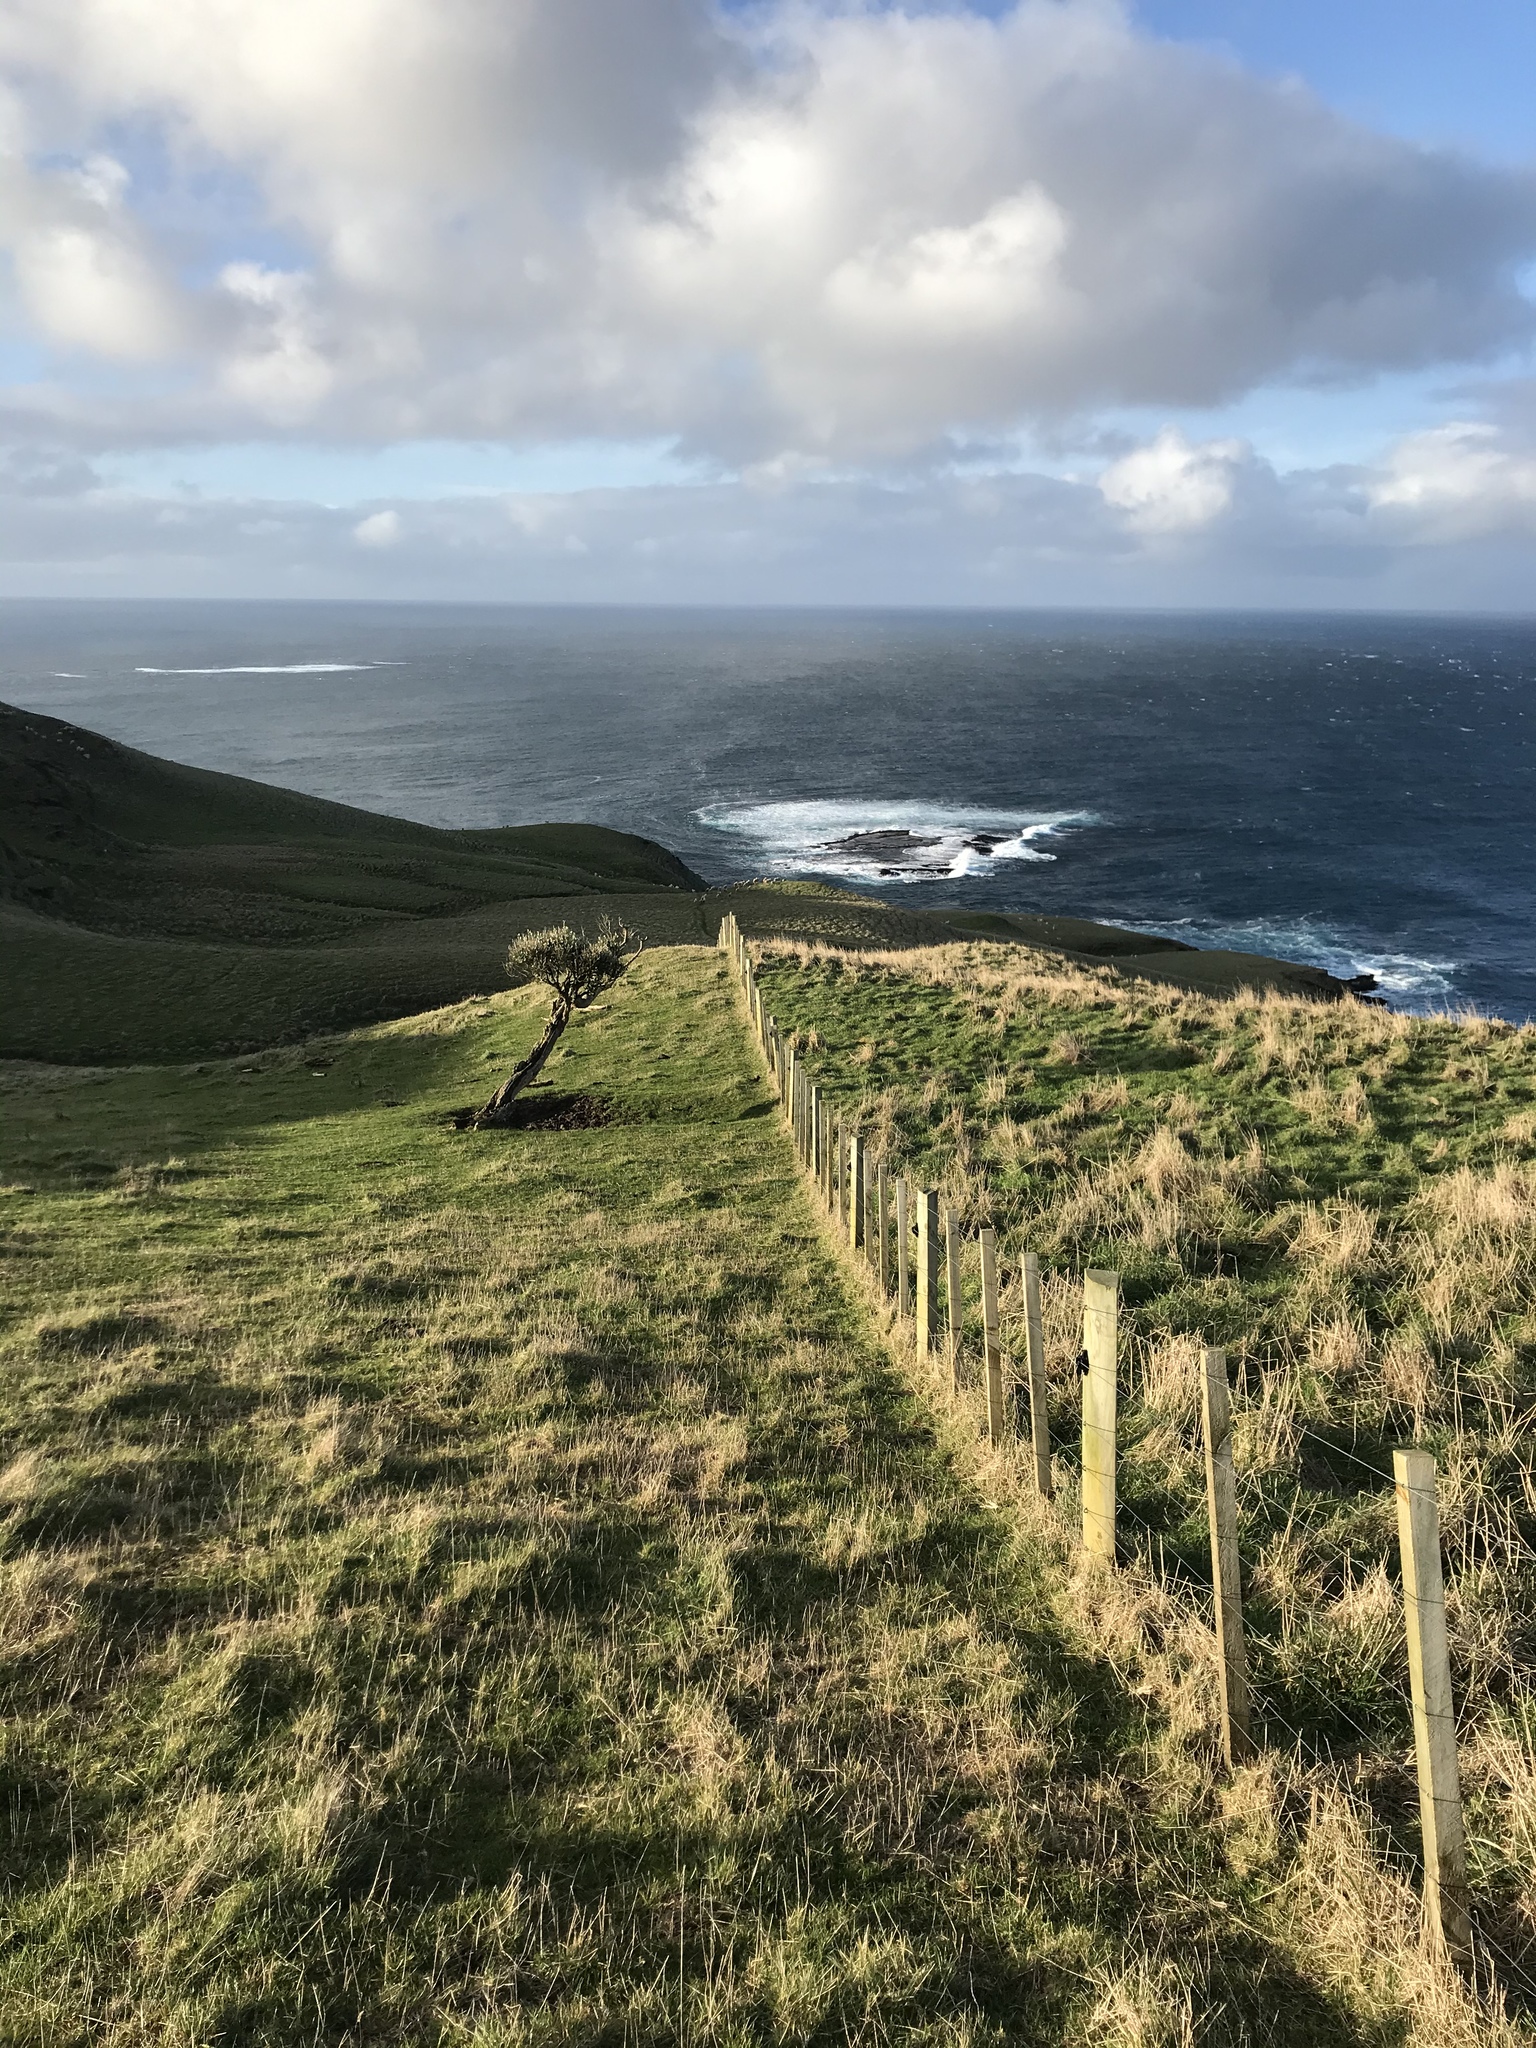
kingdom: Plantae
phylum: Tracheophyta
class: Magnoliopsida
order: Asterales
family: Asteraceae
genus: Olearia
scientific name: Olearia traversiorum
